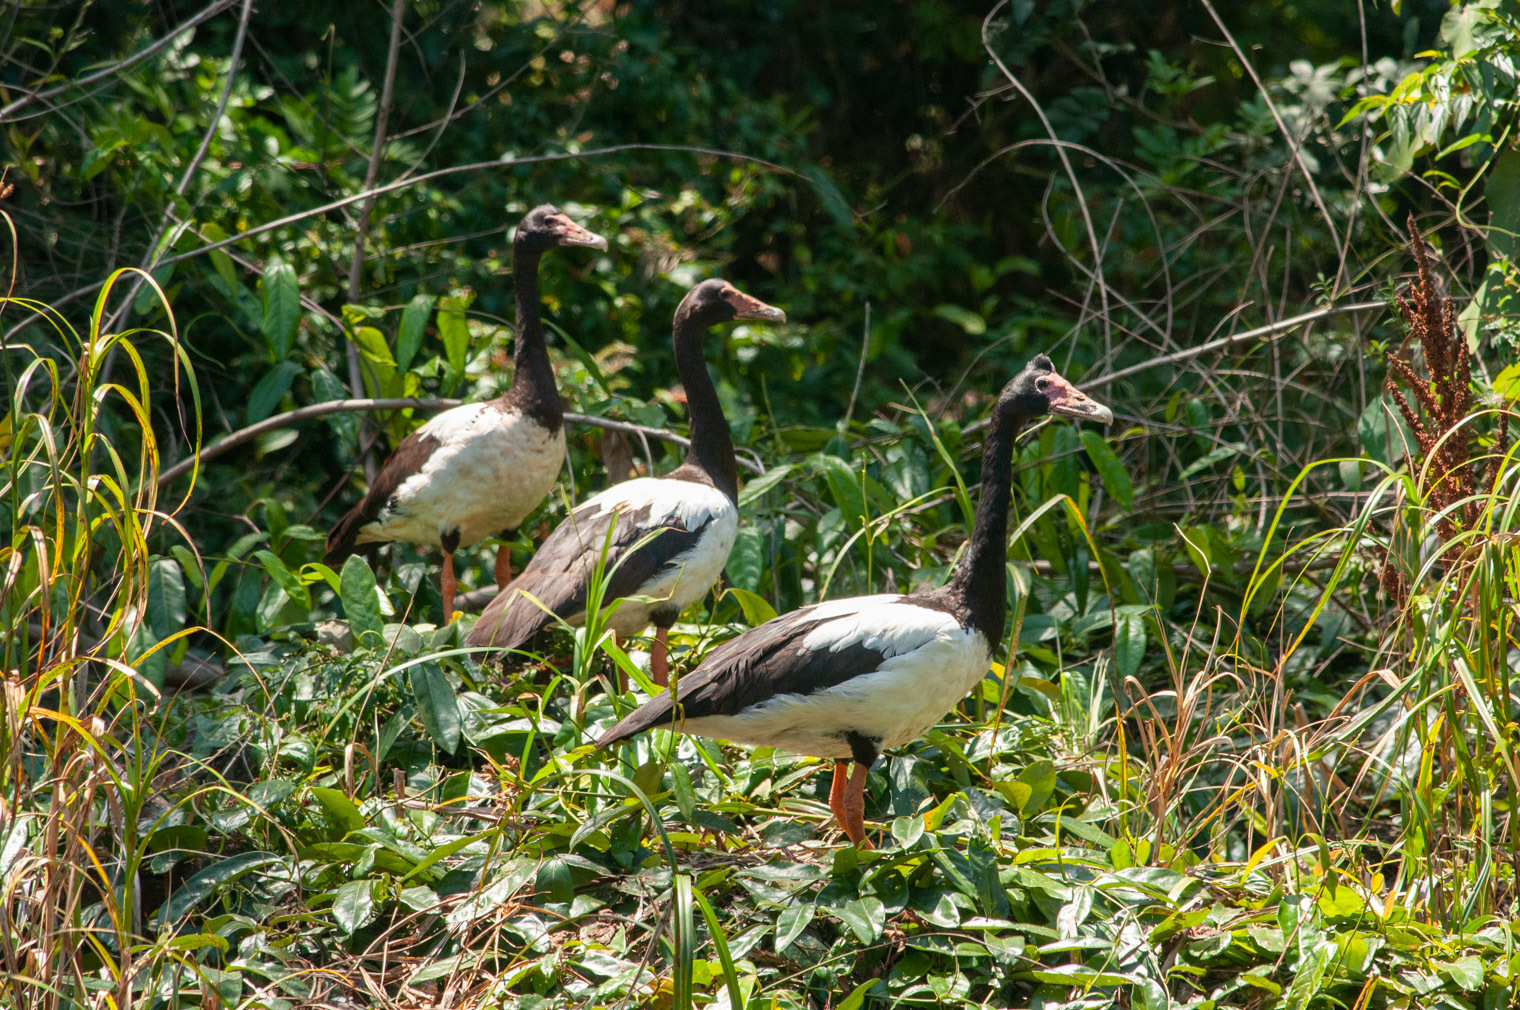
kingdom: Animalia
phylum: Chordata
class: Aves
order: Anseriformes
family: Anseranatidae
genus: Anseranas
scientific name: Anseranas semipalmata
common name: Magpie goose
